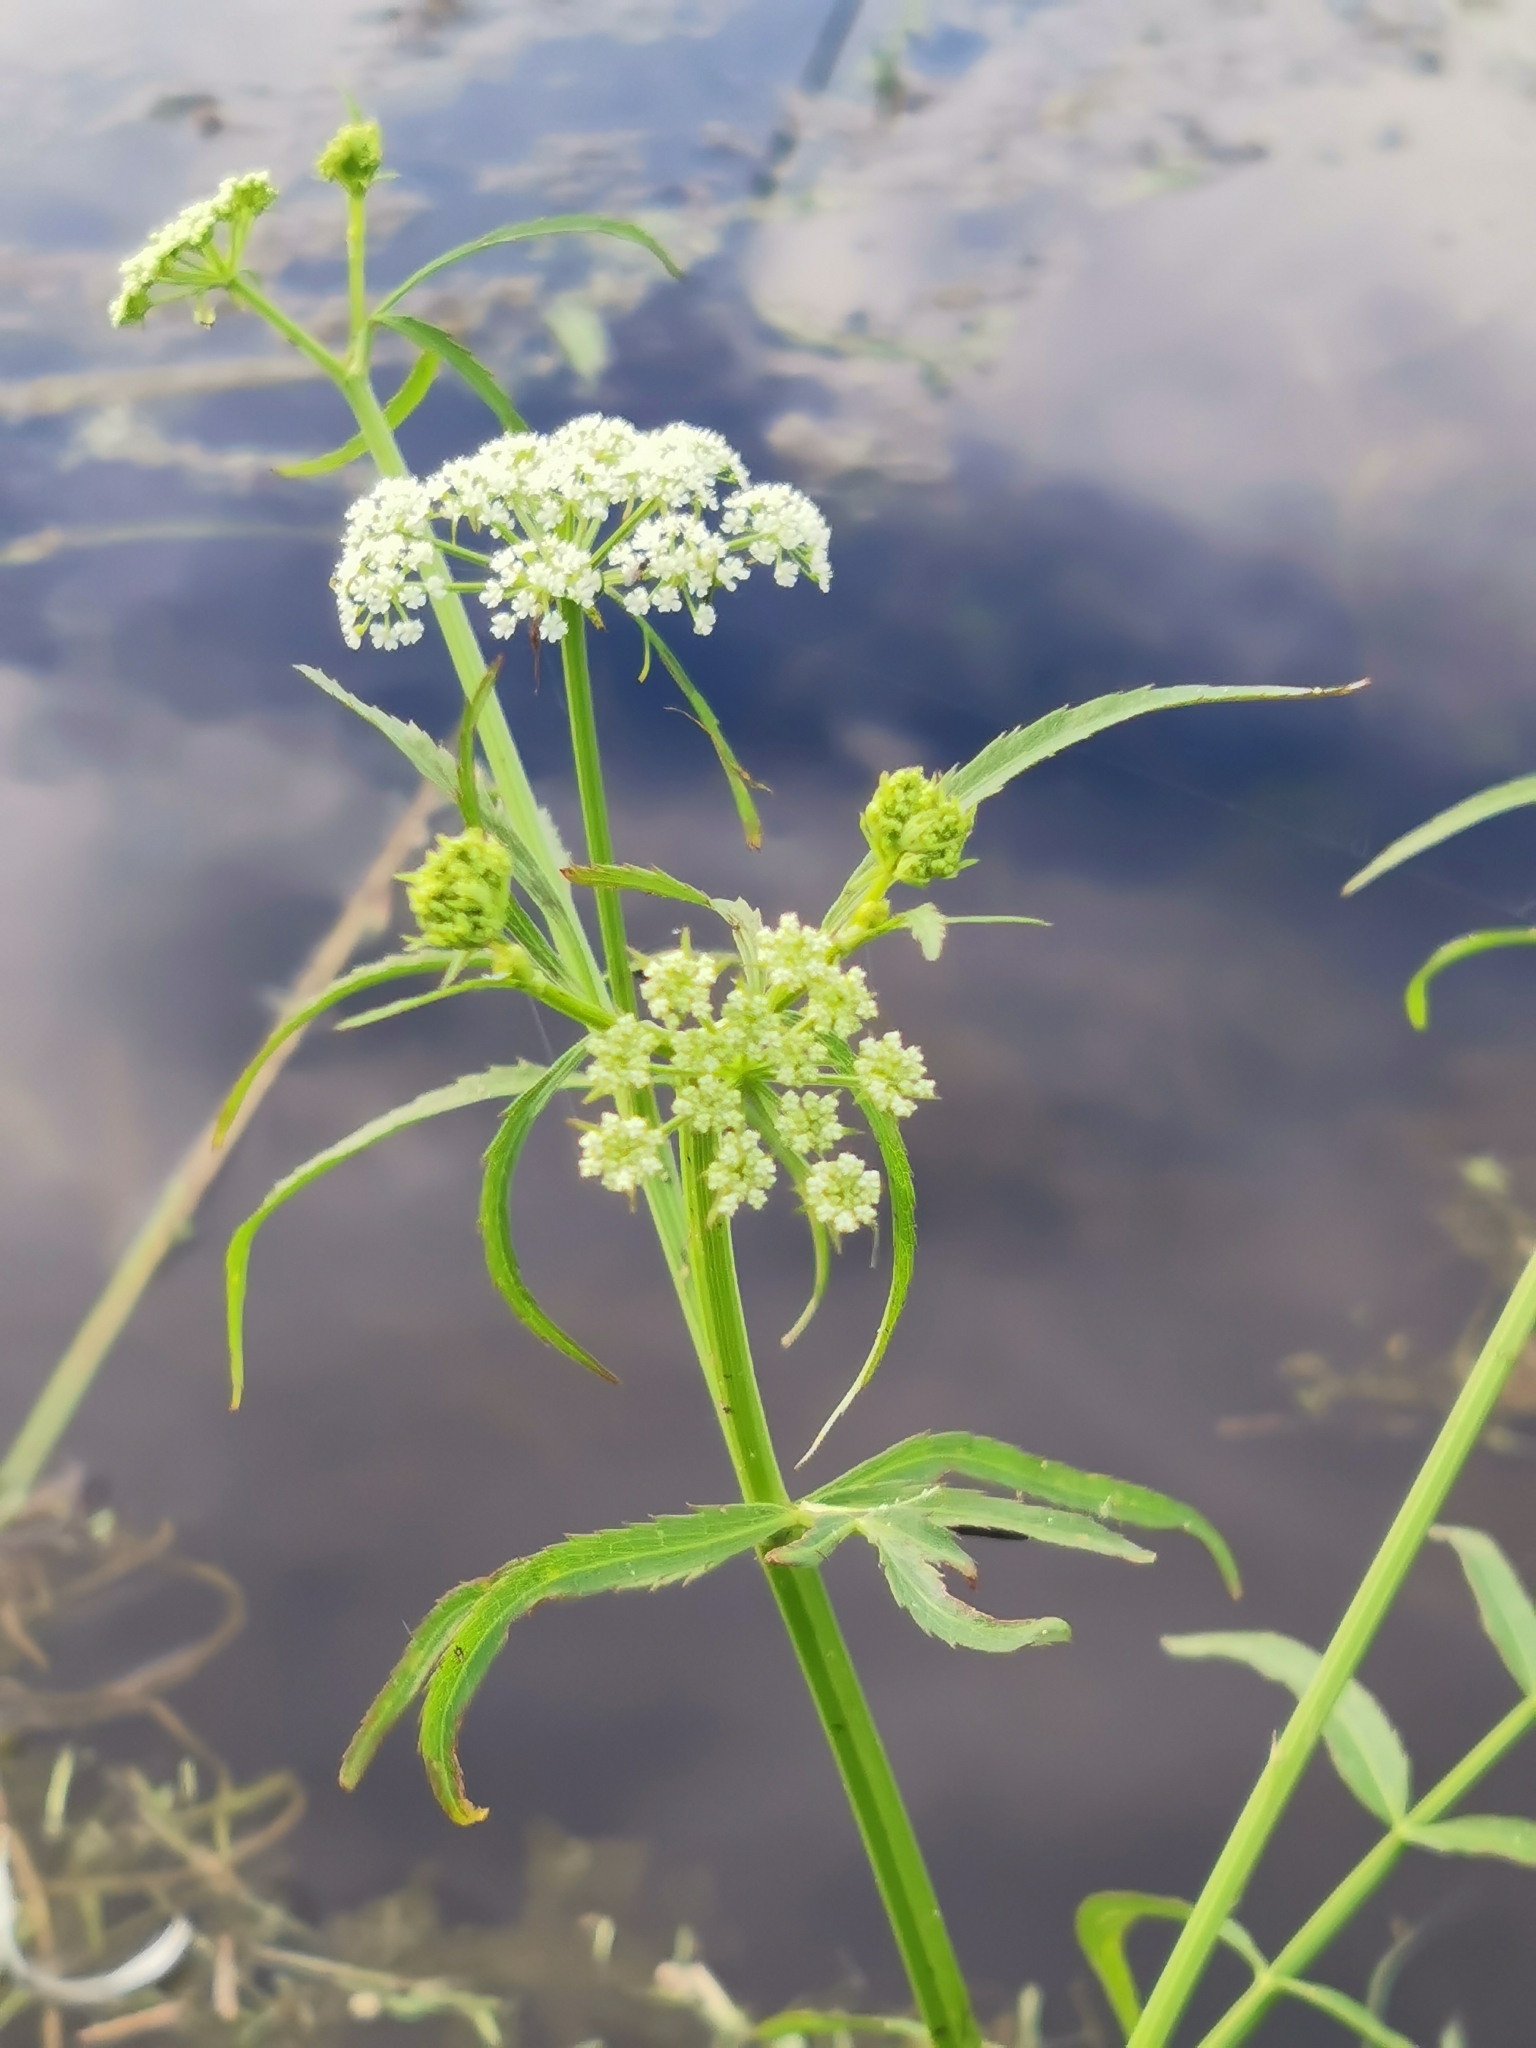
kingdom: Plantae
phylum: Tracheophyta
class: Magnoliopsida
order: Apiales
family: Apiaceae
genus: Sium
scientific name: Sium suave
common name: Hemlock water-parsnip
